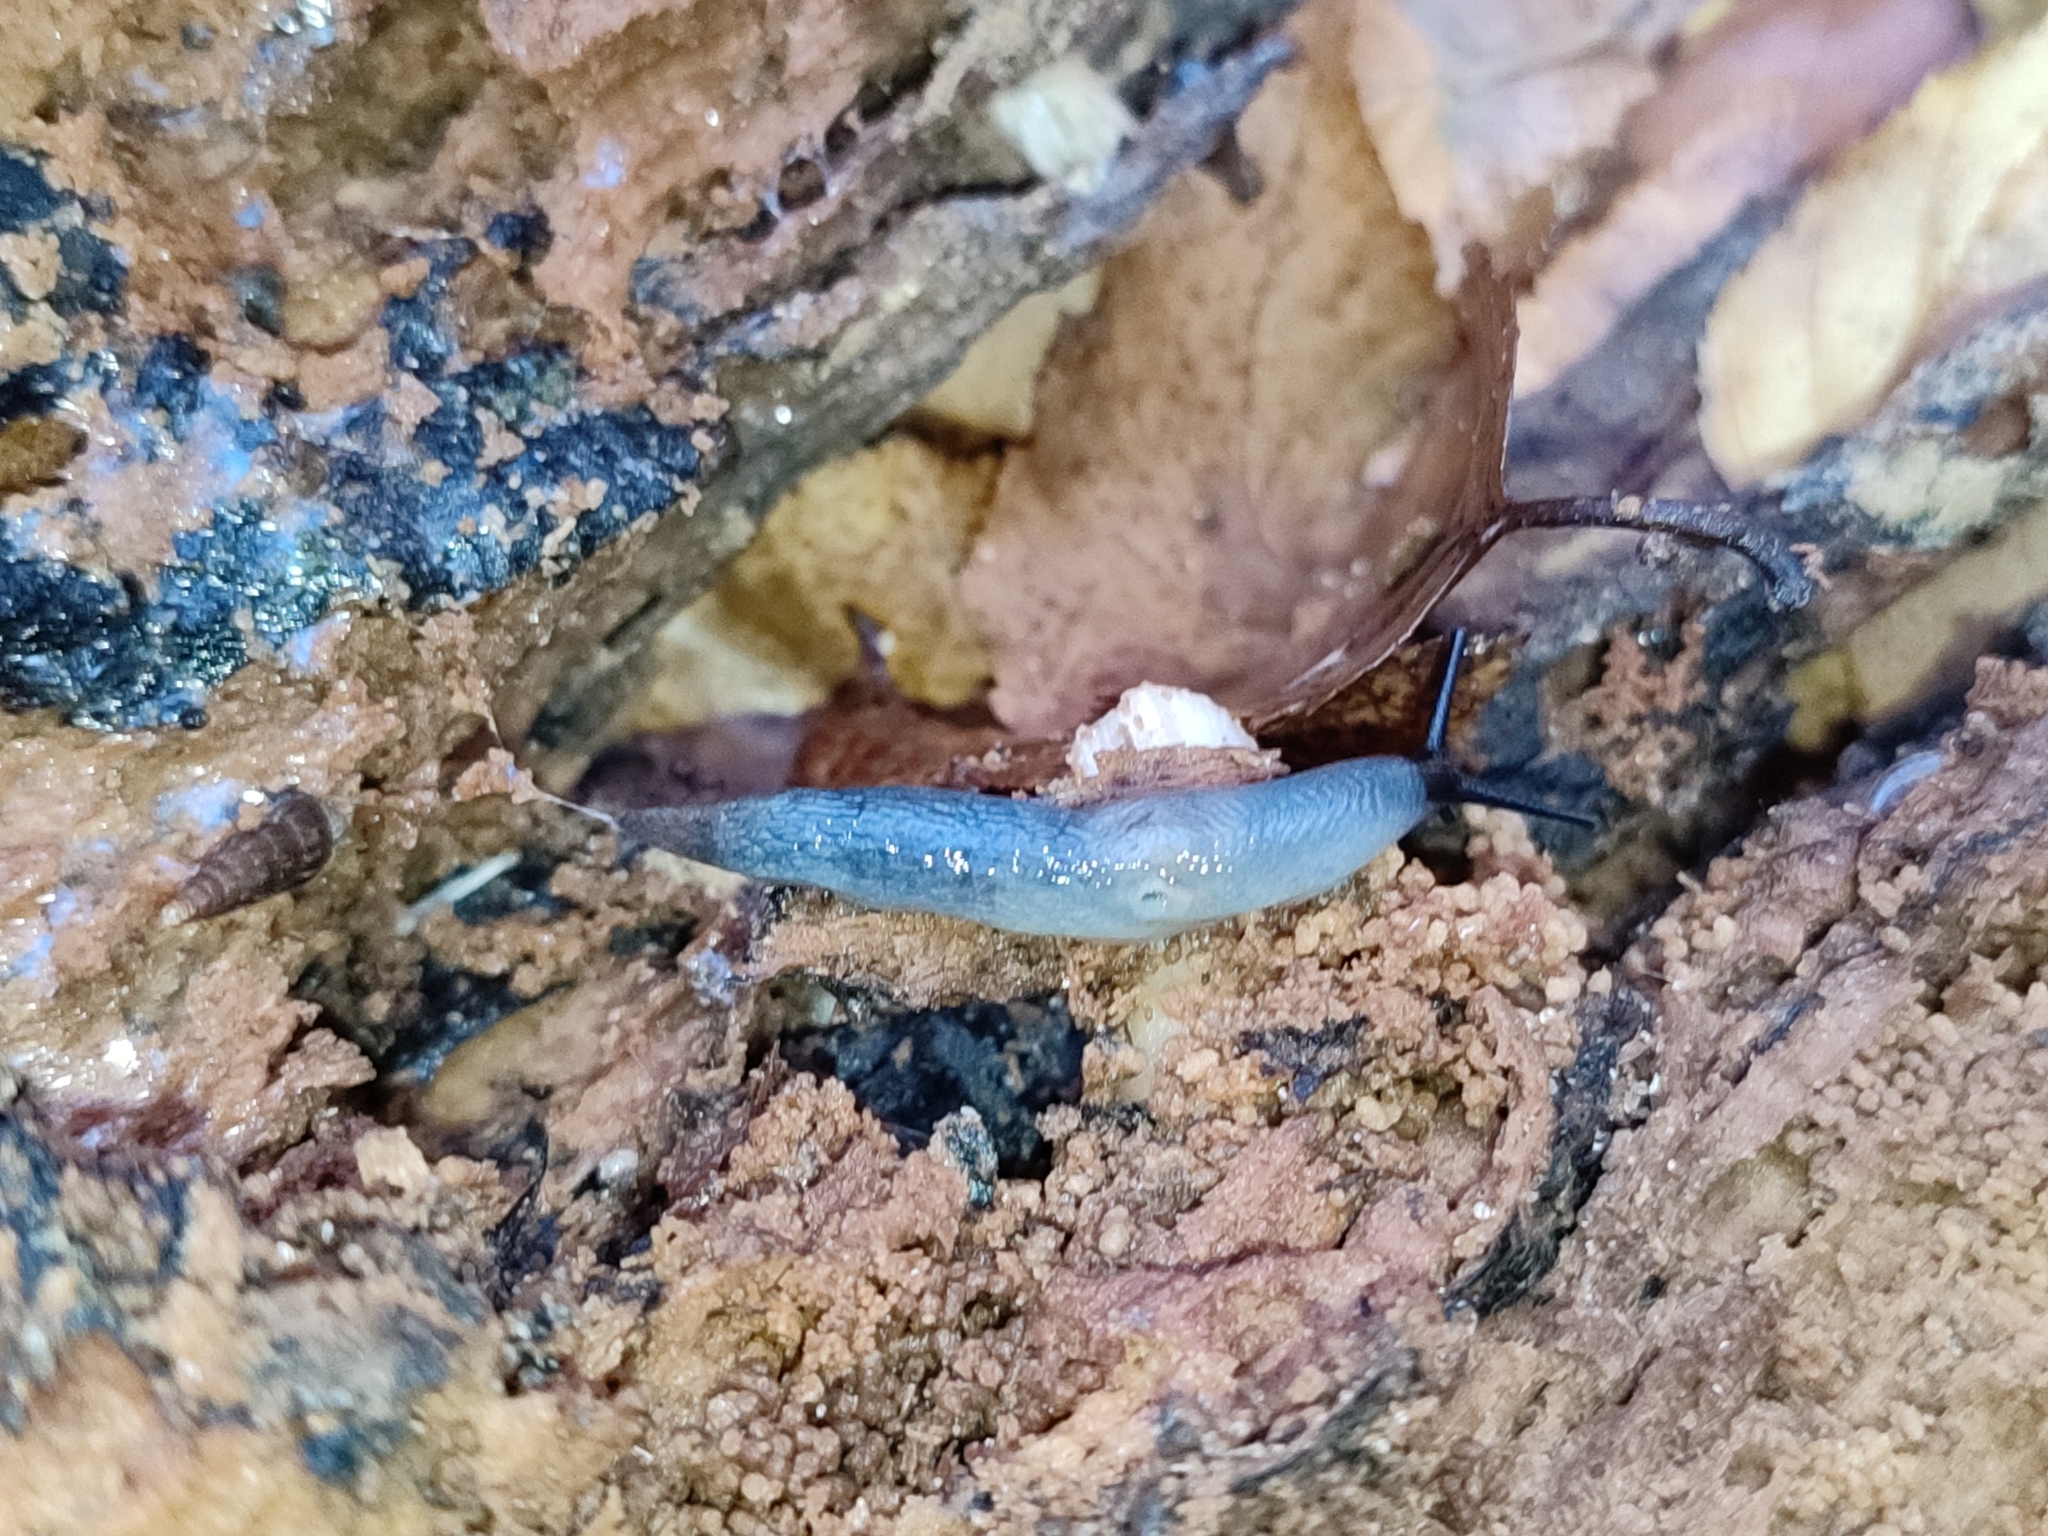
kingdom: Animalia
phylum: Mollusca
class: Gastropoda
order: Stylommatophora
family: Agriolimacidae
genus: Krynickillus
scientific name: Krynickillus melanocephalus
